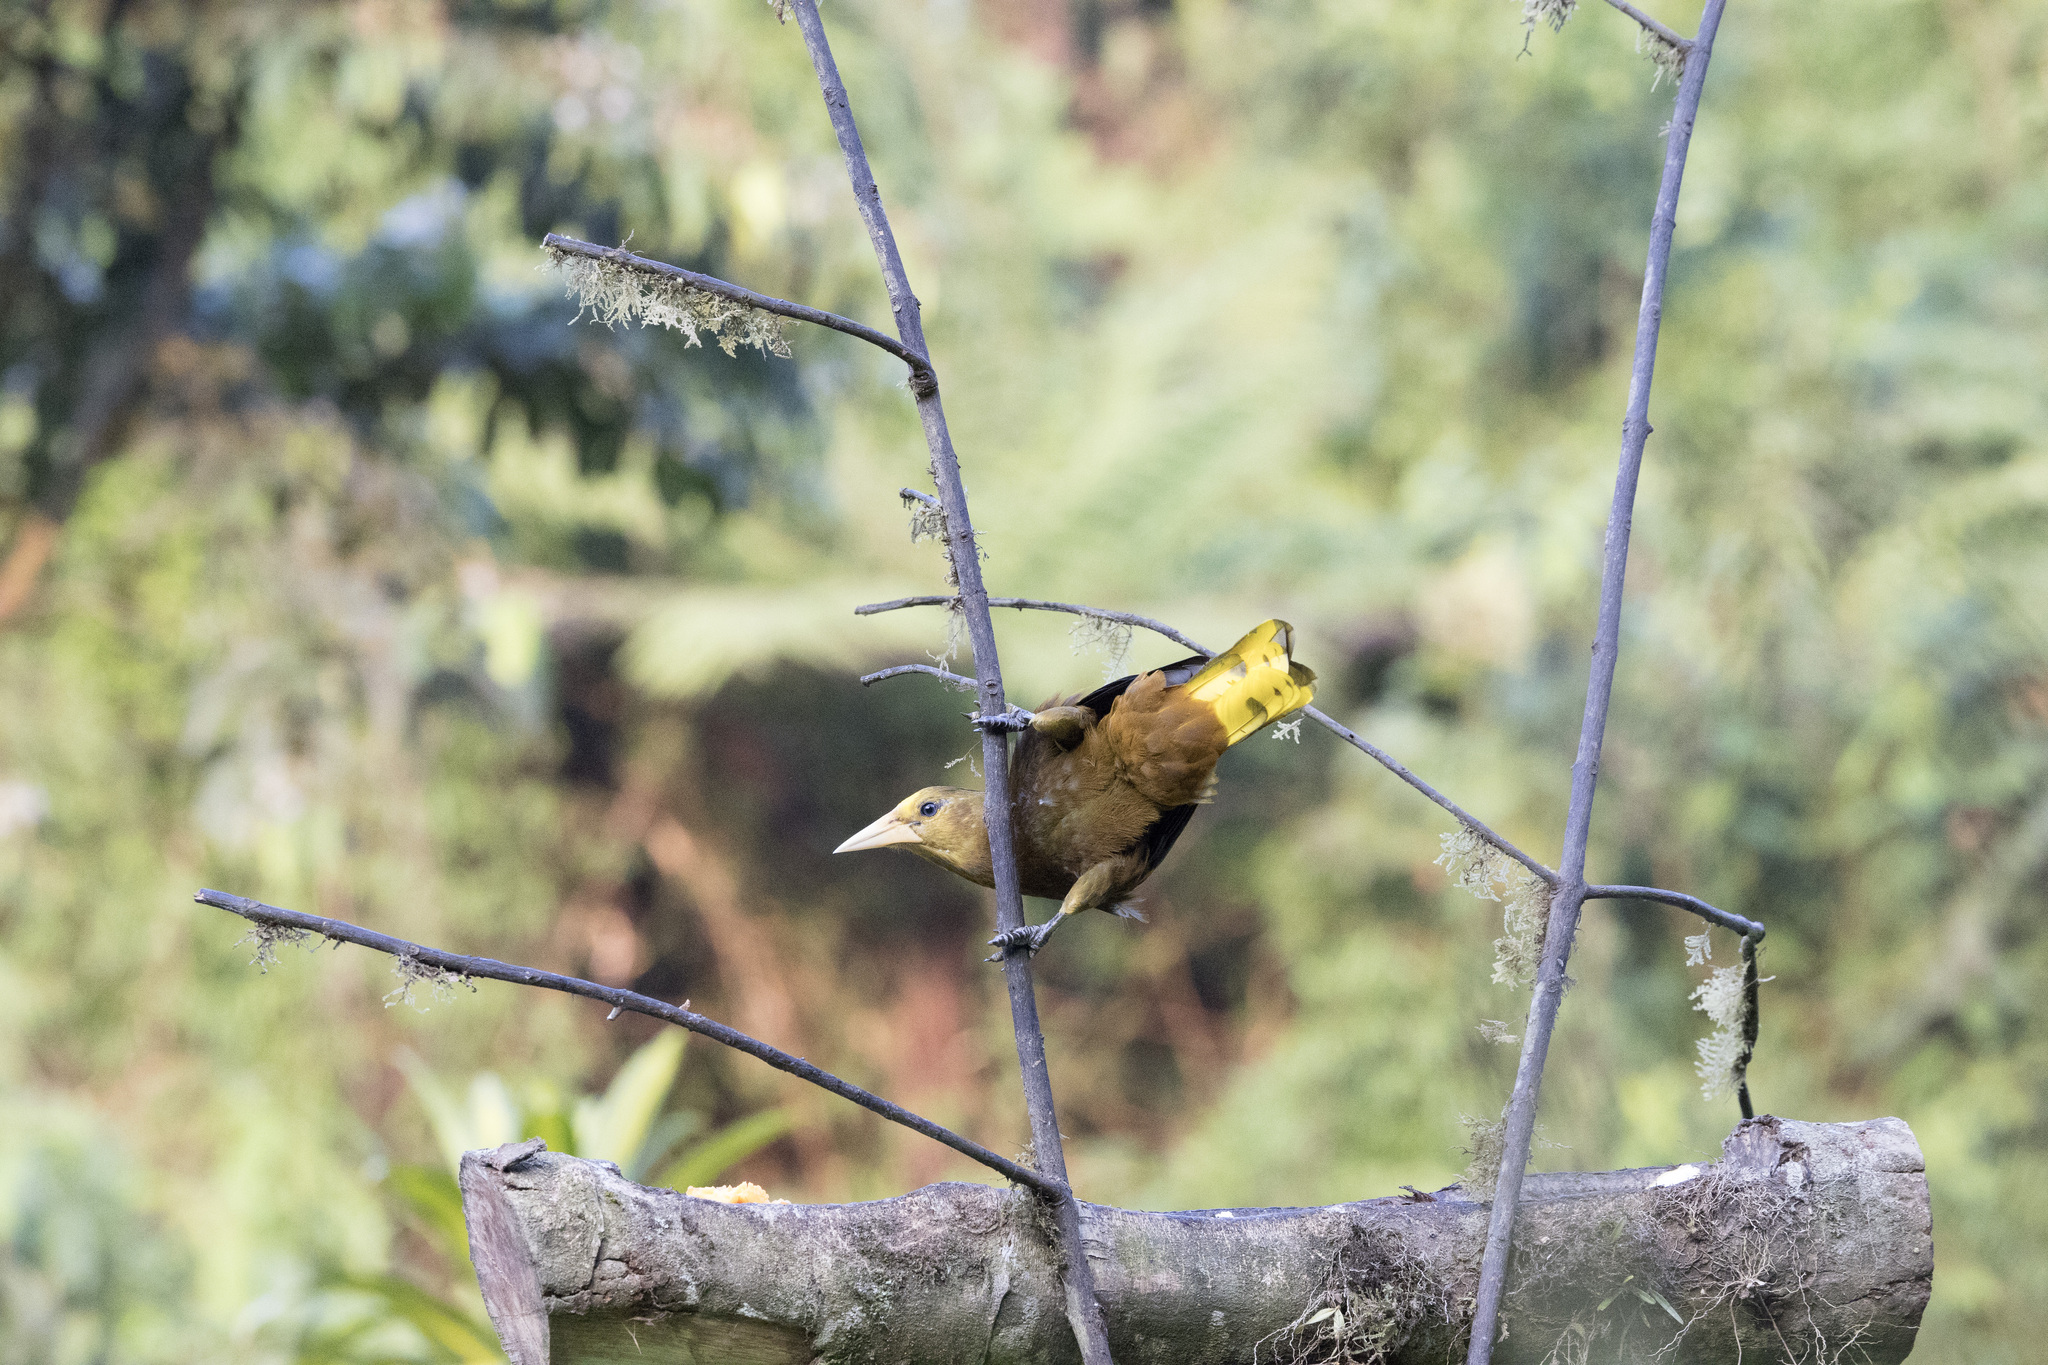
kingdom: Animalia
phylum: Chordata
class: Aves
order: Passeriformes
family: Icteridae
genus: Psarocolius
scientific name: Psarocolius angustifrons
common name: Russet-backed oropendola
